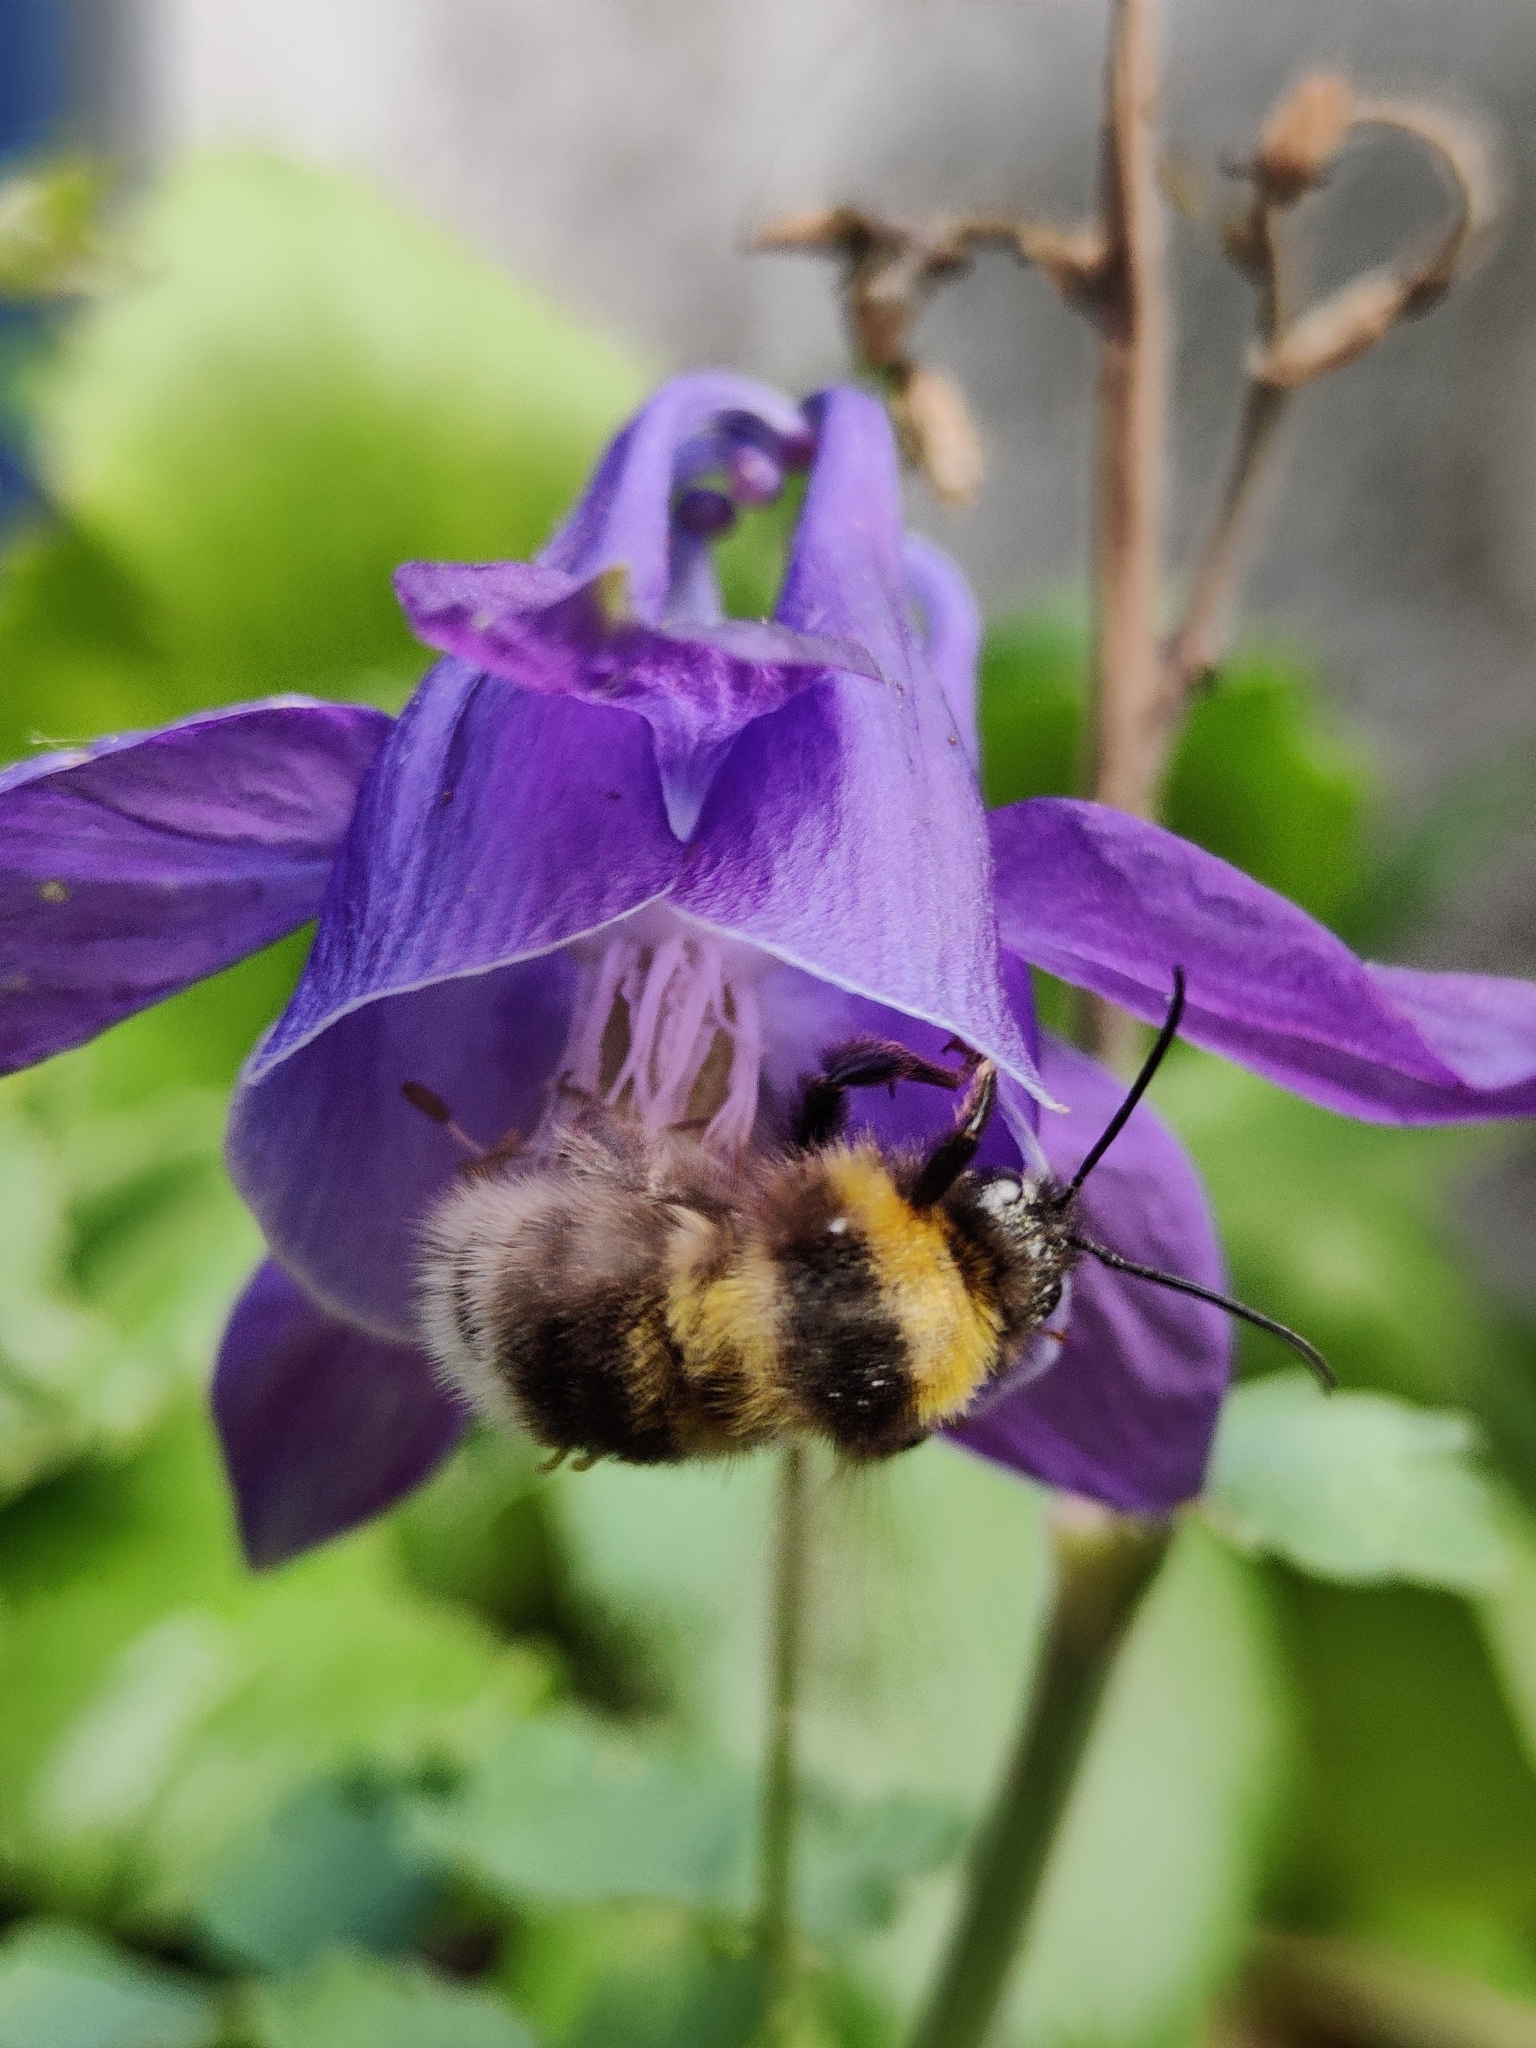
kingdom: Animalia
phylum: Arthropoda
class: Insecta
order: Hymenoptera
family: Apidae
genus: Bombus
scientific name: Bombus hortorum
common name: Garden bumblebee
